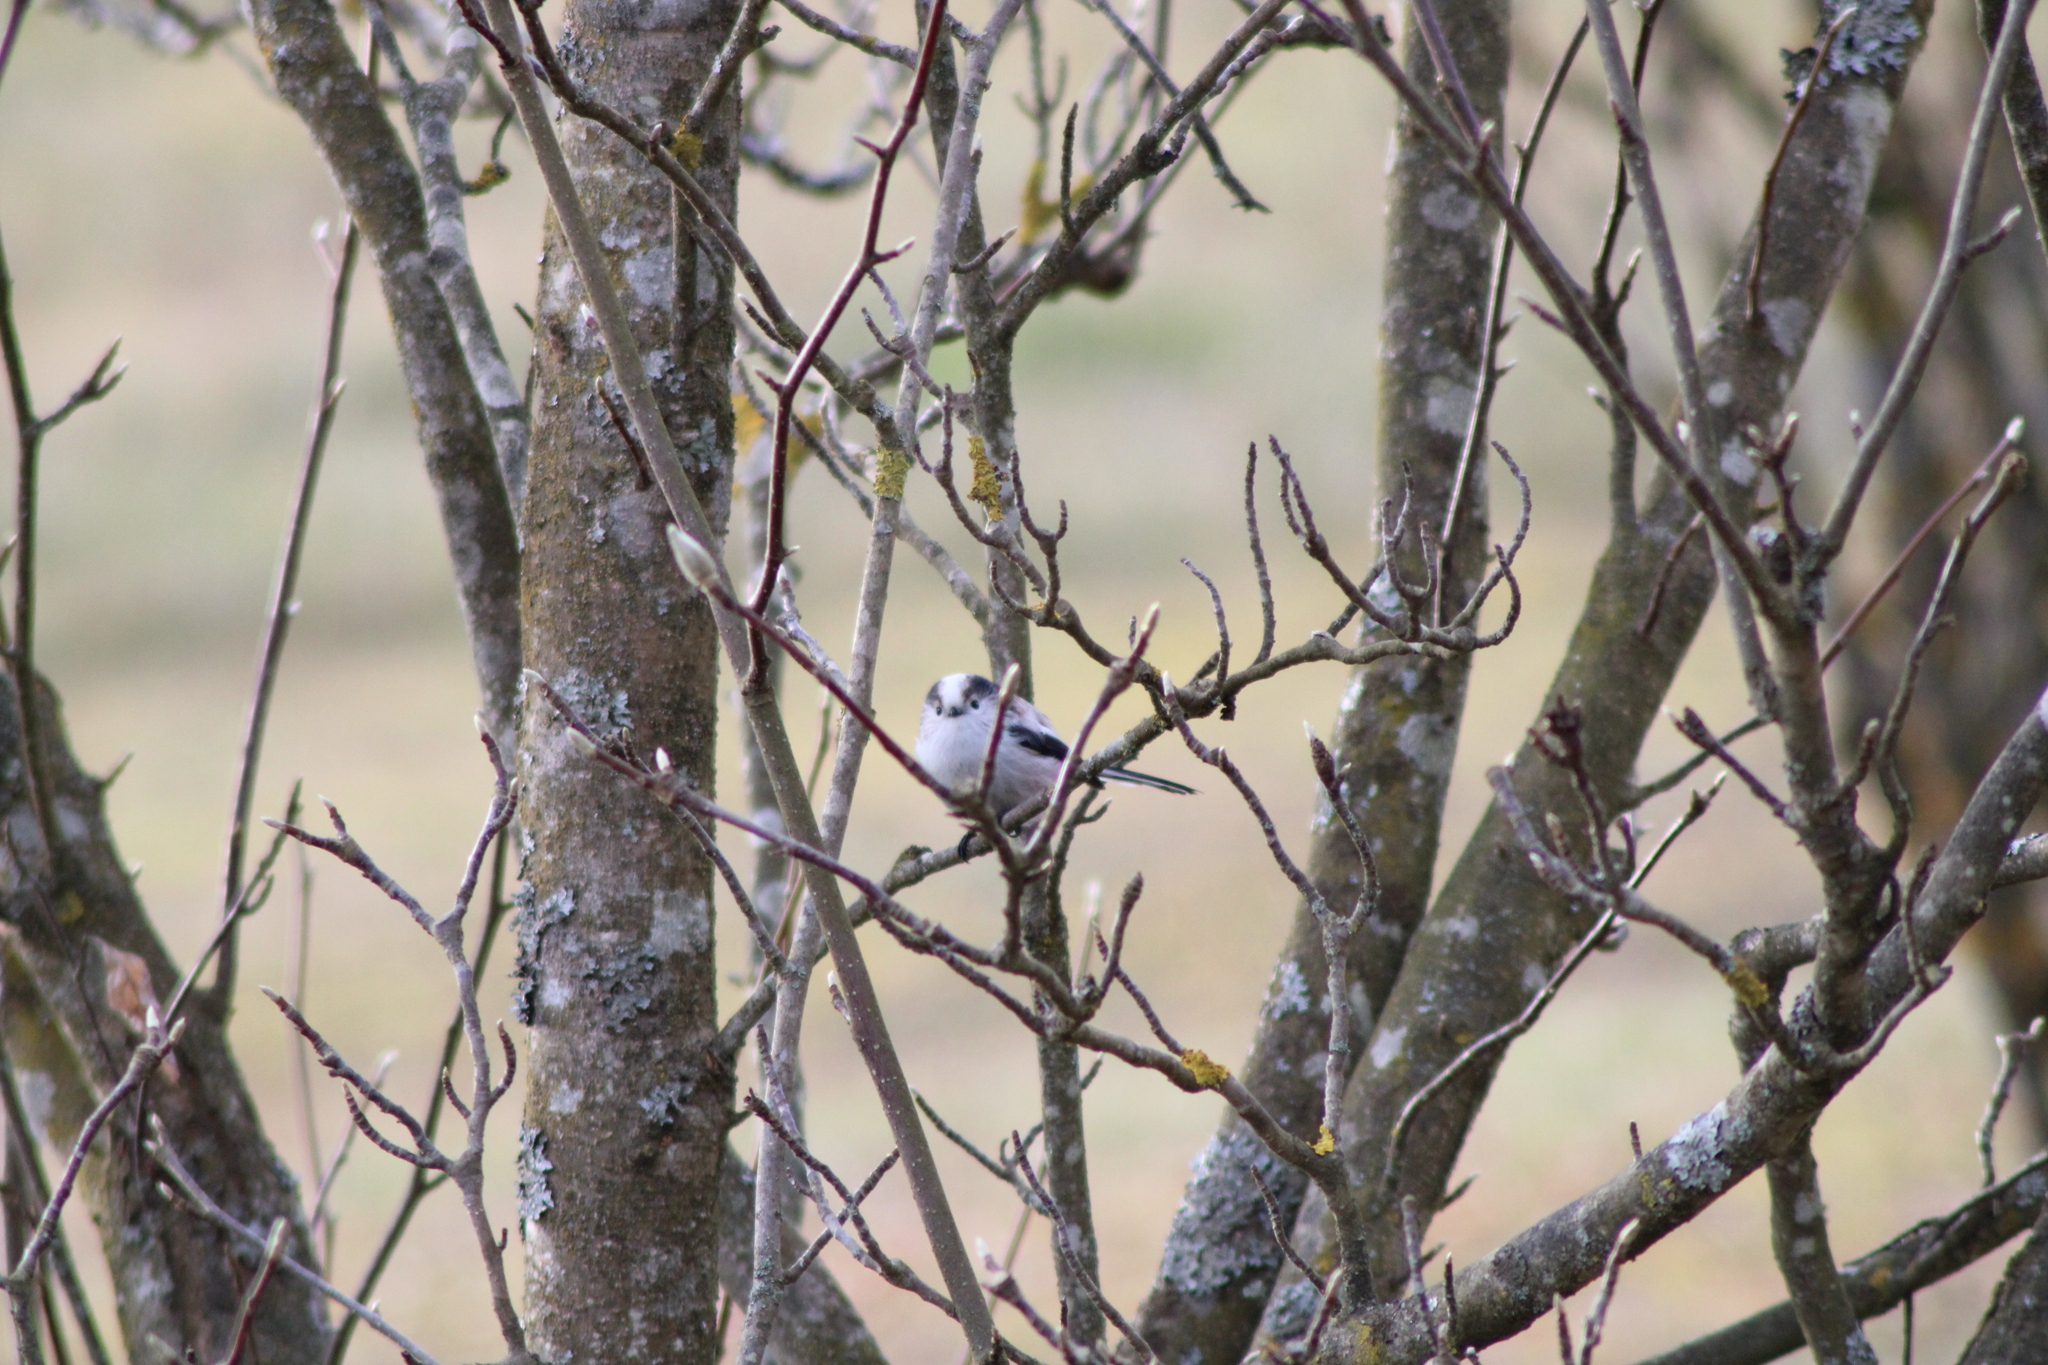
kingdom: Animalia
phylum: Chordata
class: Aves
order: Passeriformes
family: Aegithalidae
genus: Aegithalos
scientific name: Aegithalos caudatus
